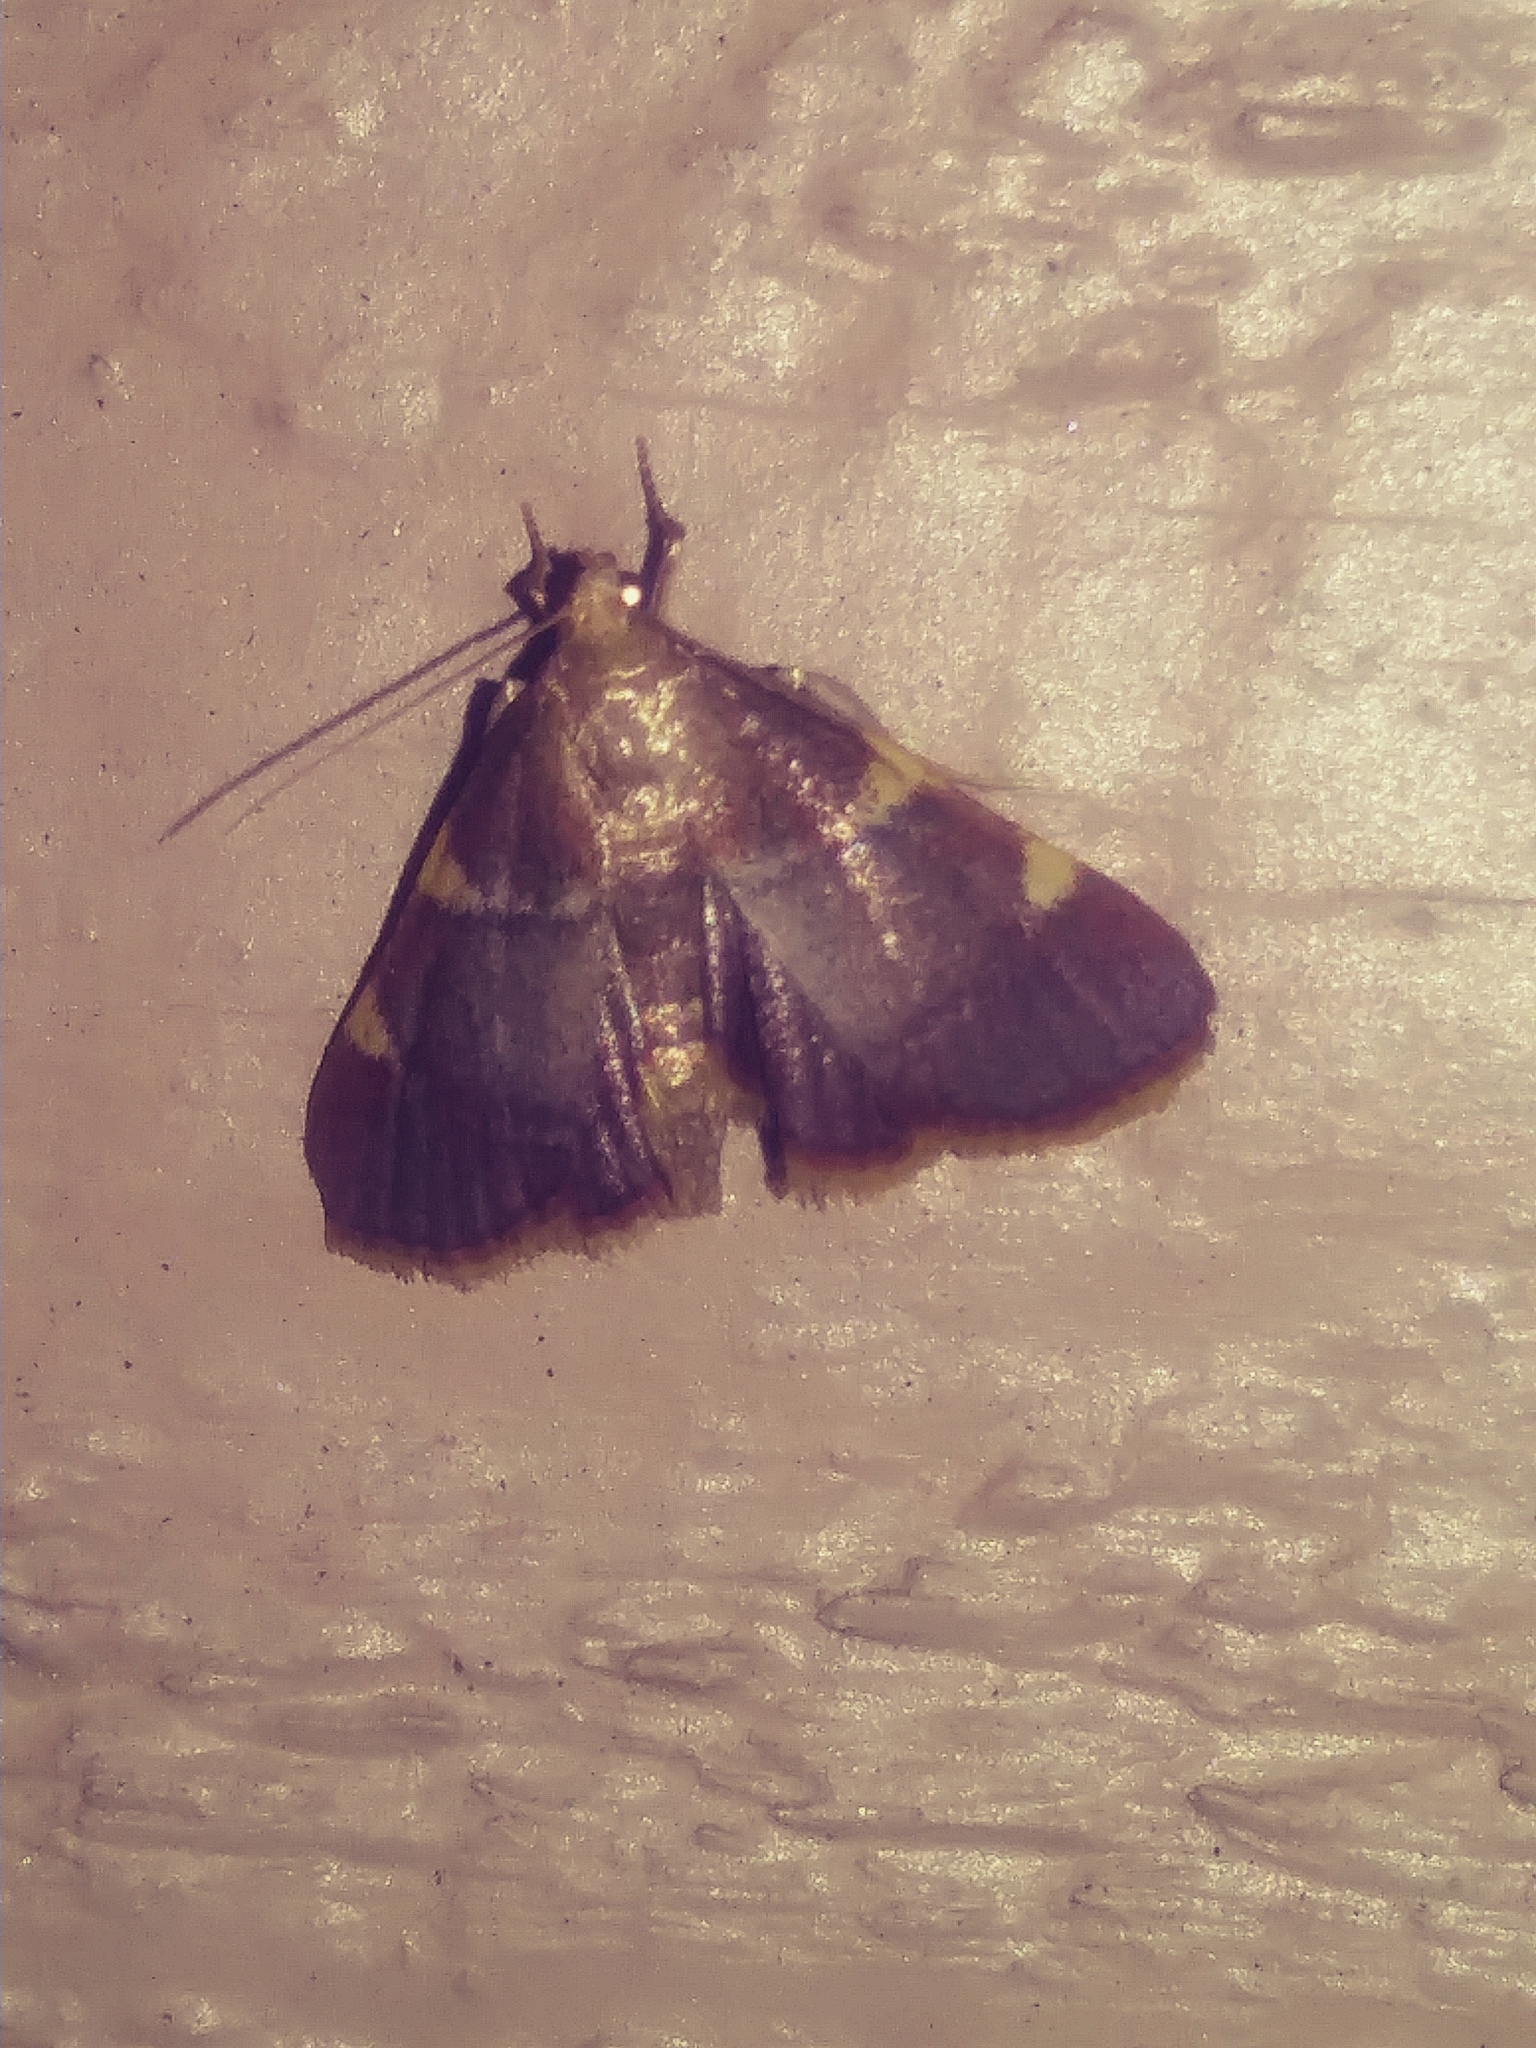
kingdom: Animalia
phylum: Arthropoda
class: Insecta
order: Lepidoptera
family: Pyralidae
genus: Hypsopygia
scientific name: Hypsopygia olinalis
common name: Yellow-fringed dolichomia moth
